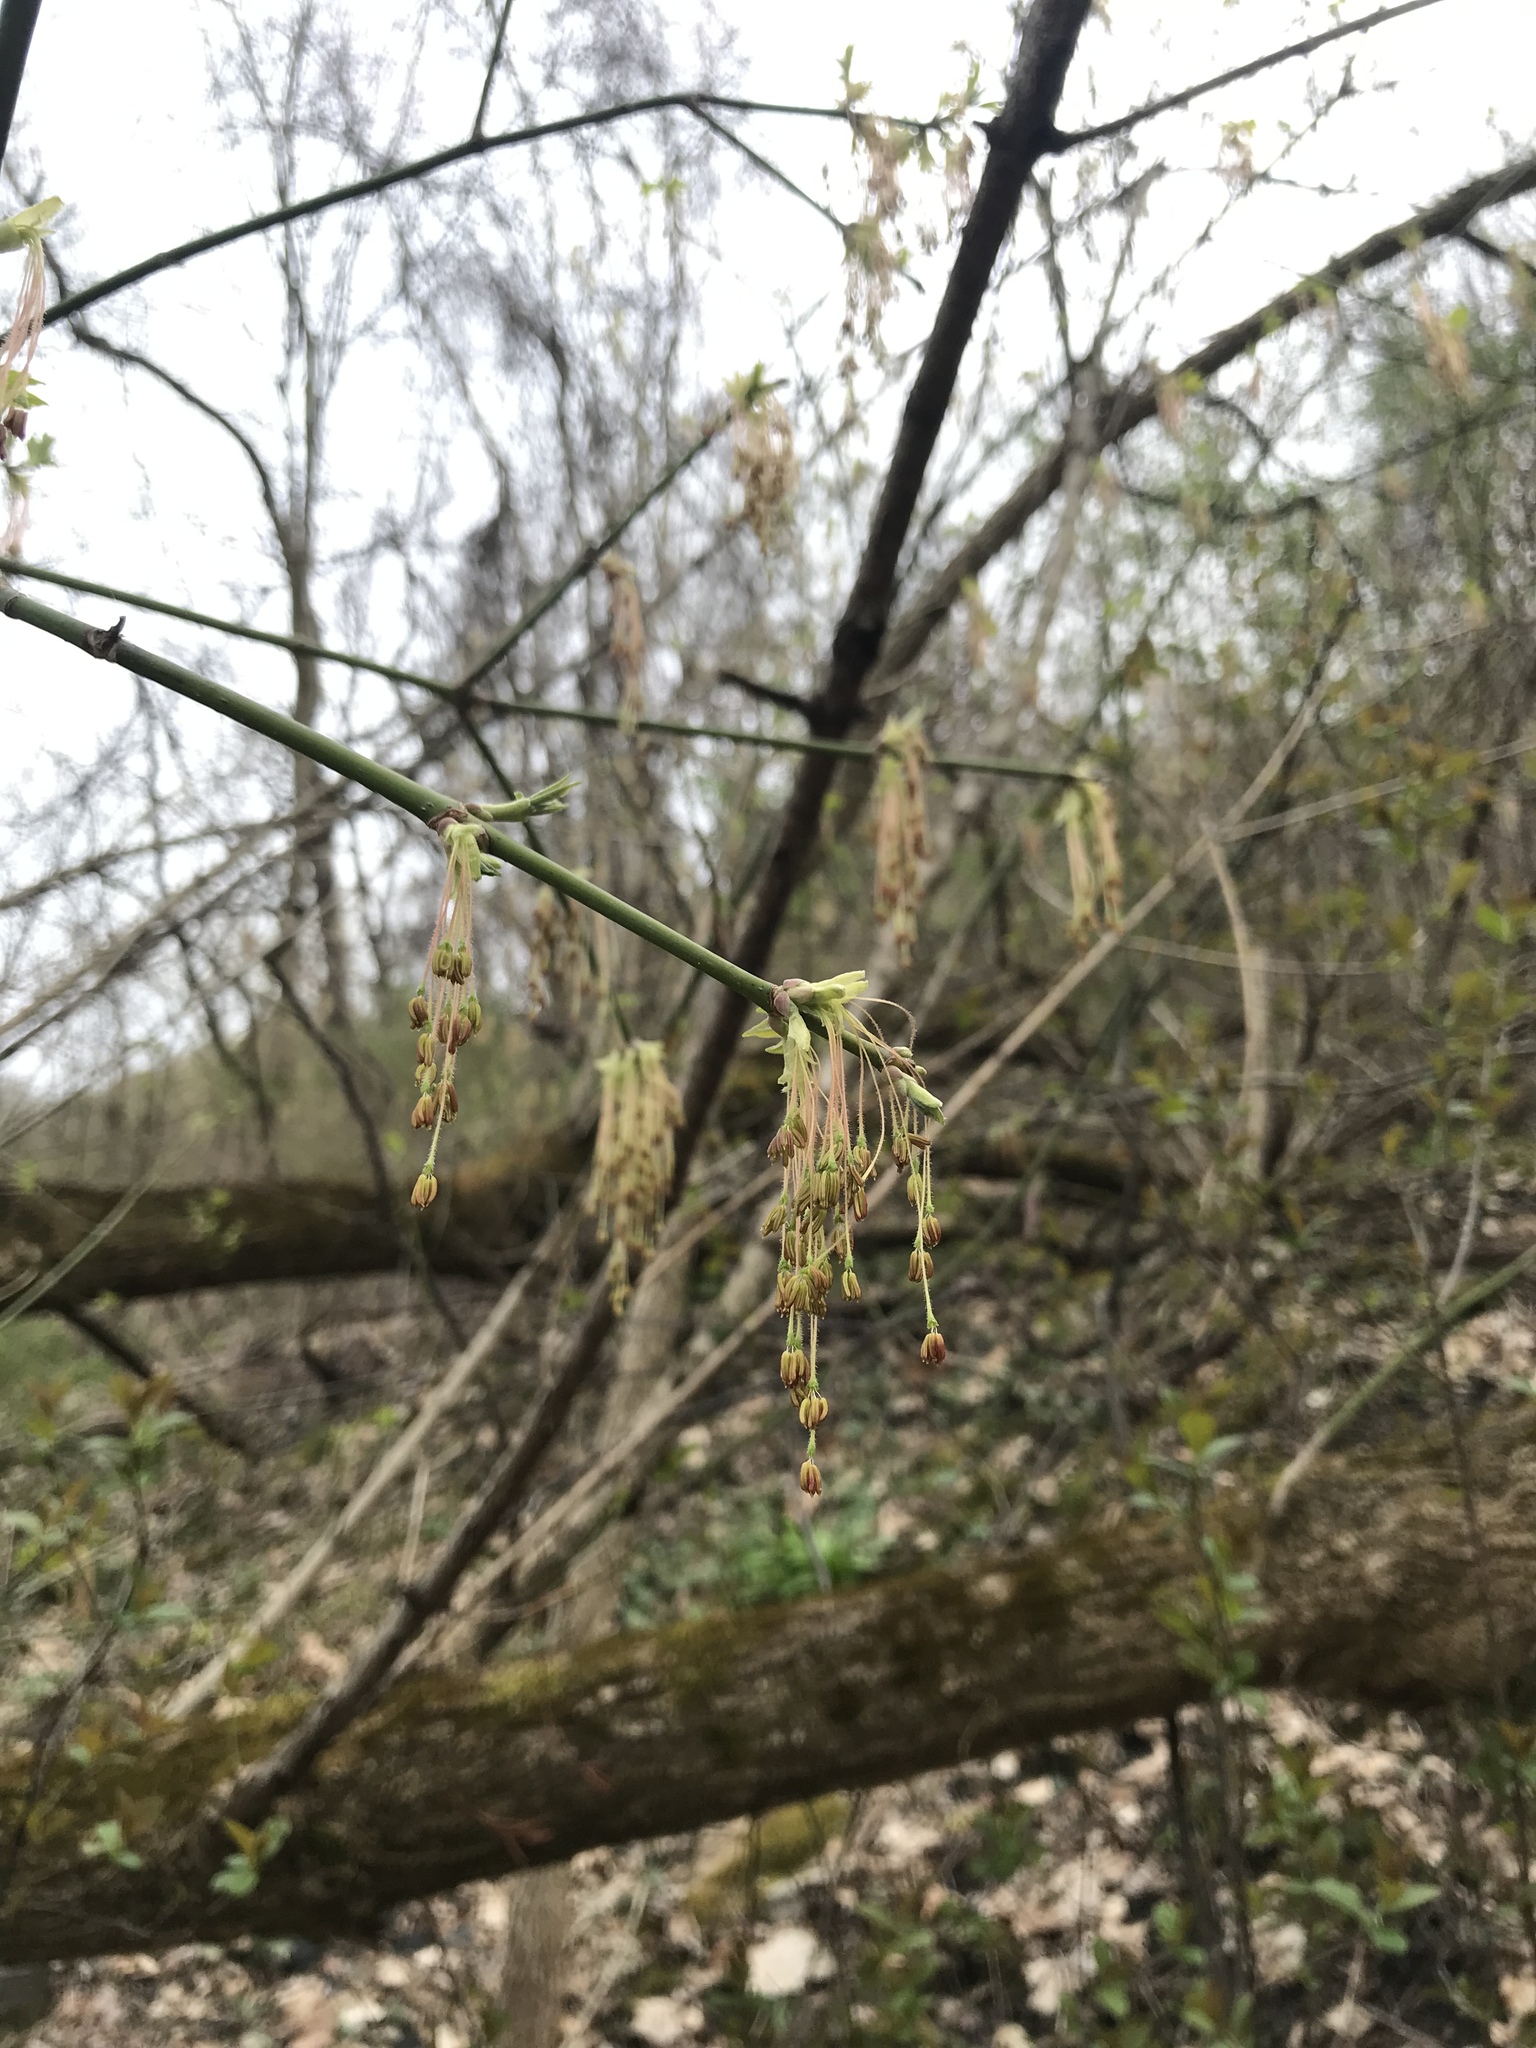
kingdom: Plantae
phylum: Tracheophyta
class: Magnoliopsida
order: Sapindales
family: Sapindaceae
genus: Acer
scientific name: Acer negundo
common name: Ashleaf maple
